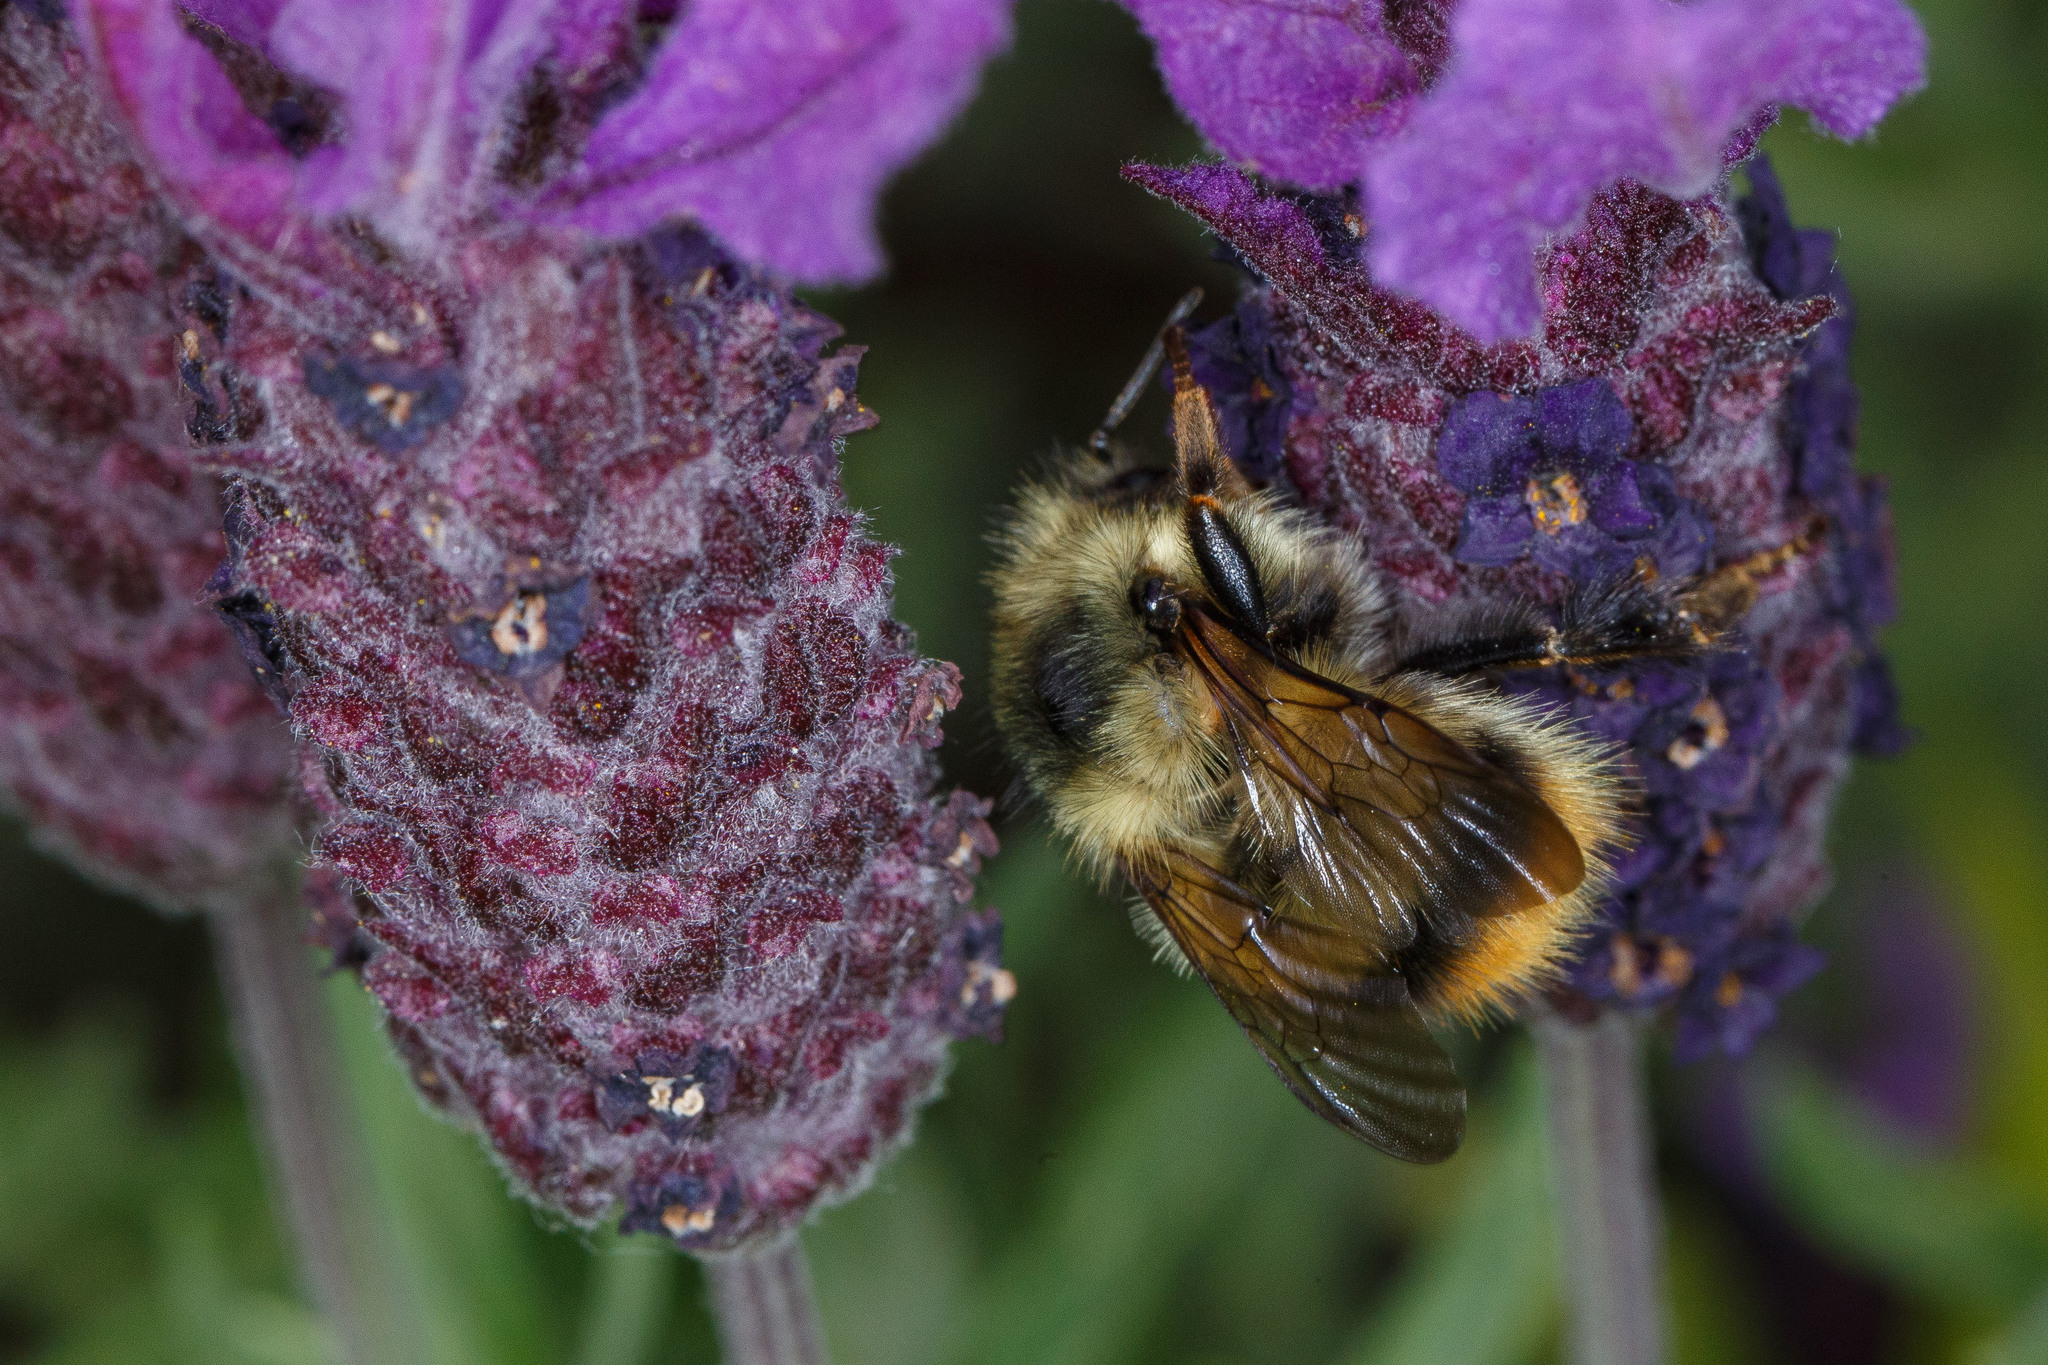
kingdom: Animalia
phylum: Arthropoda
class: Insecta
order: Hymenoptera
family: Apidae
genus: Bombus
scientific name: Bombus mixtus
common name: Fuzzy-horned bumble bee
